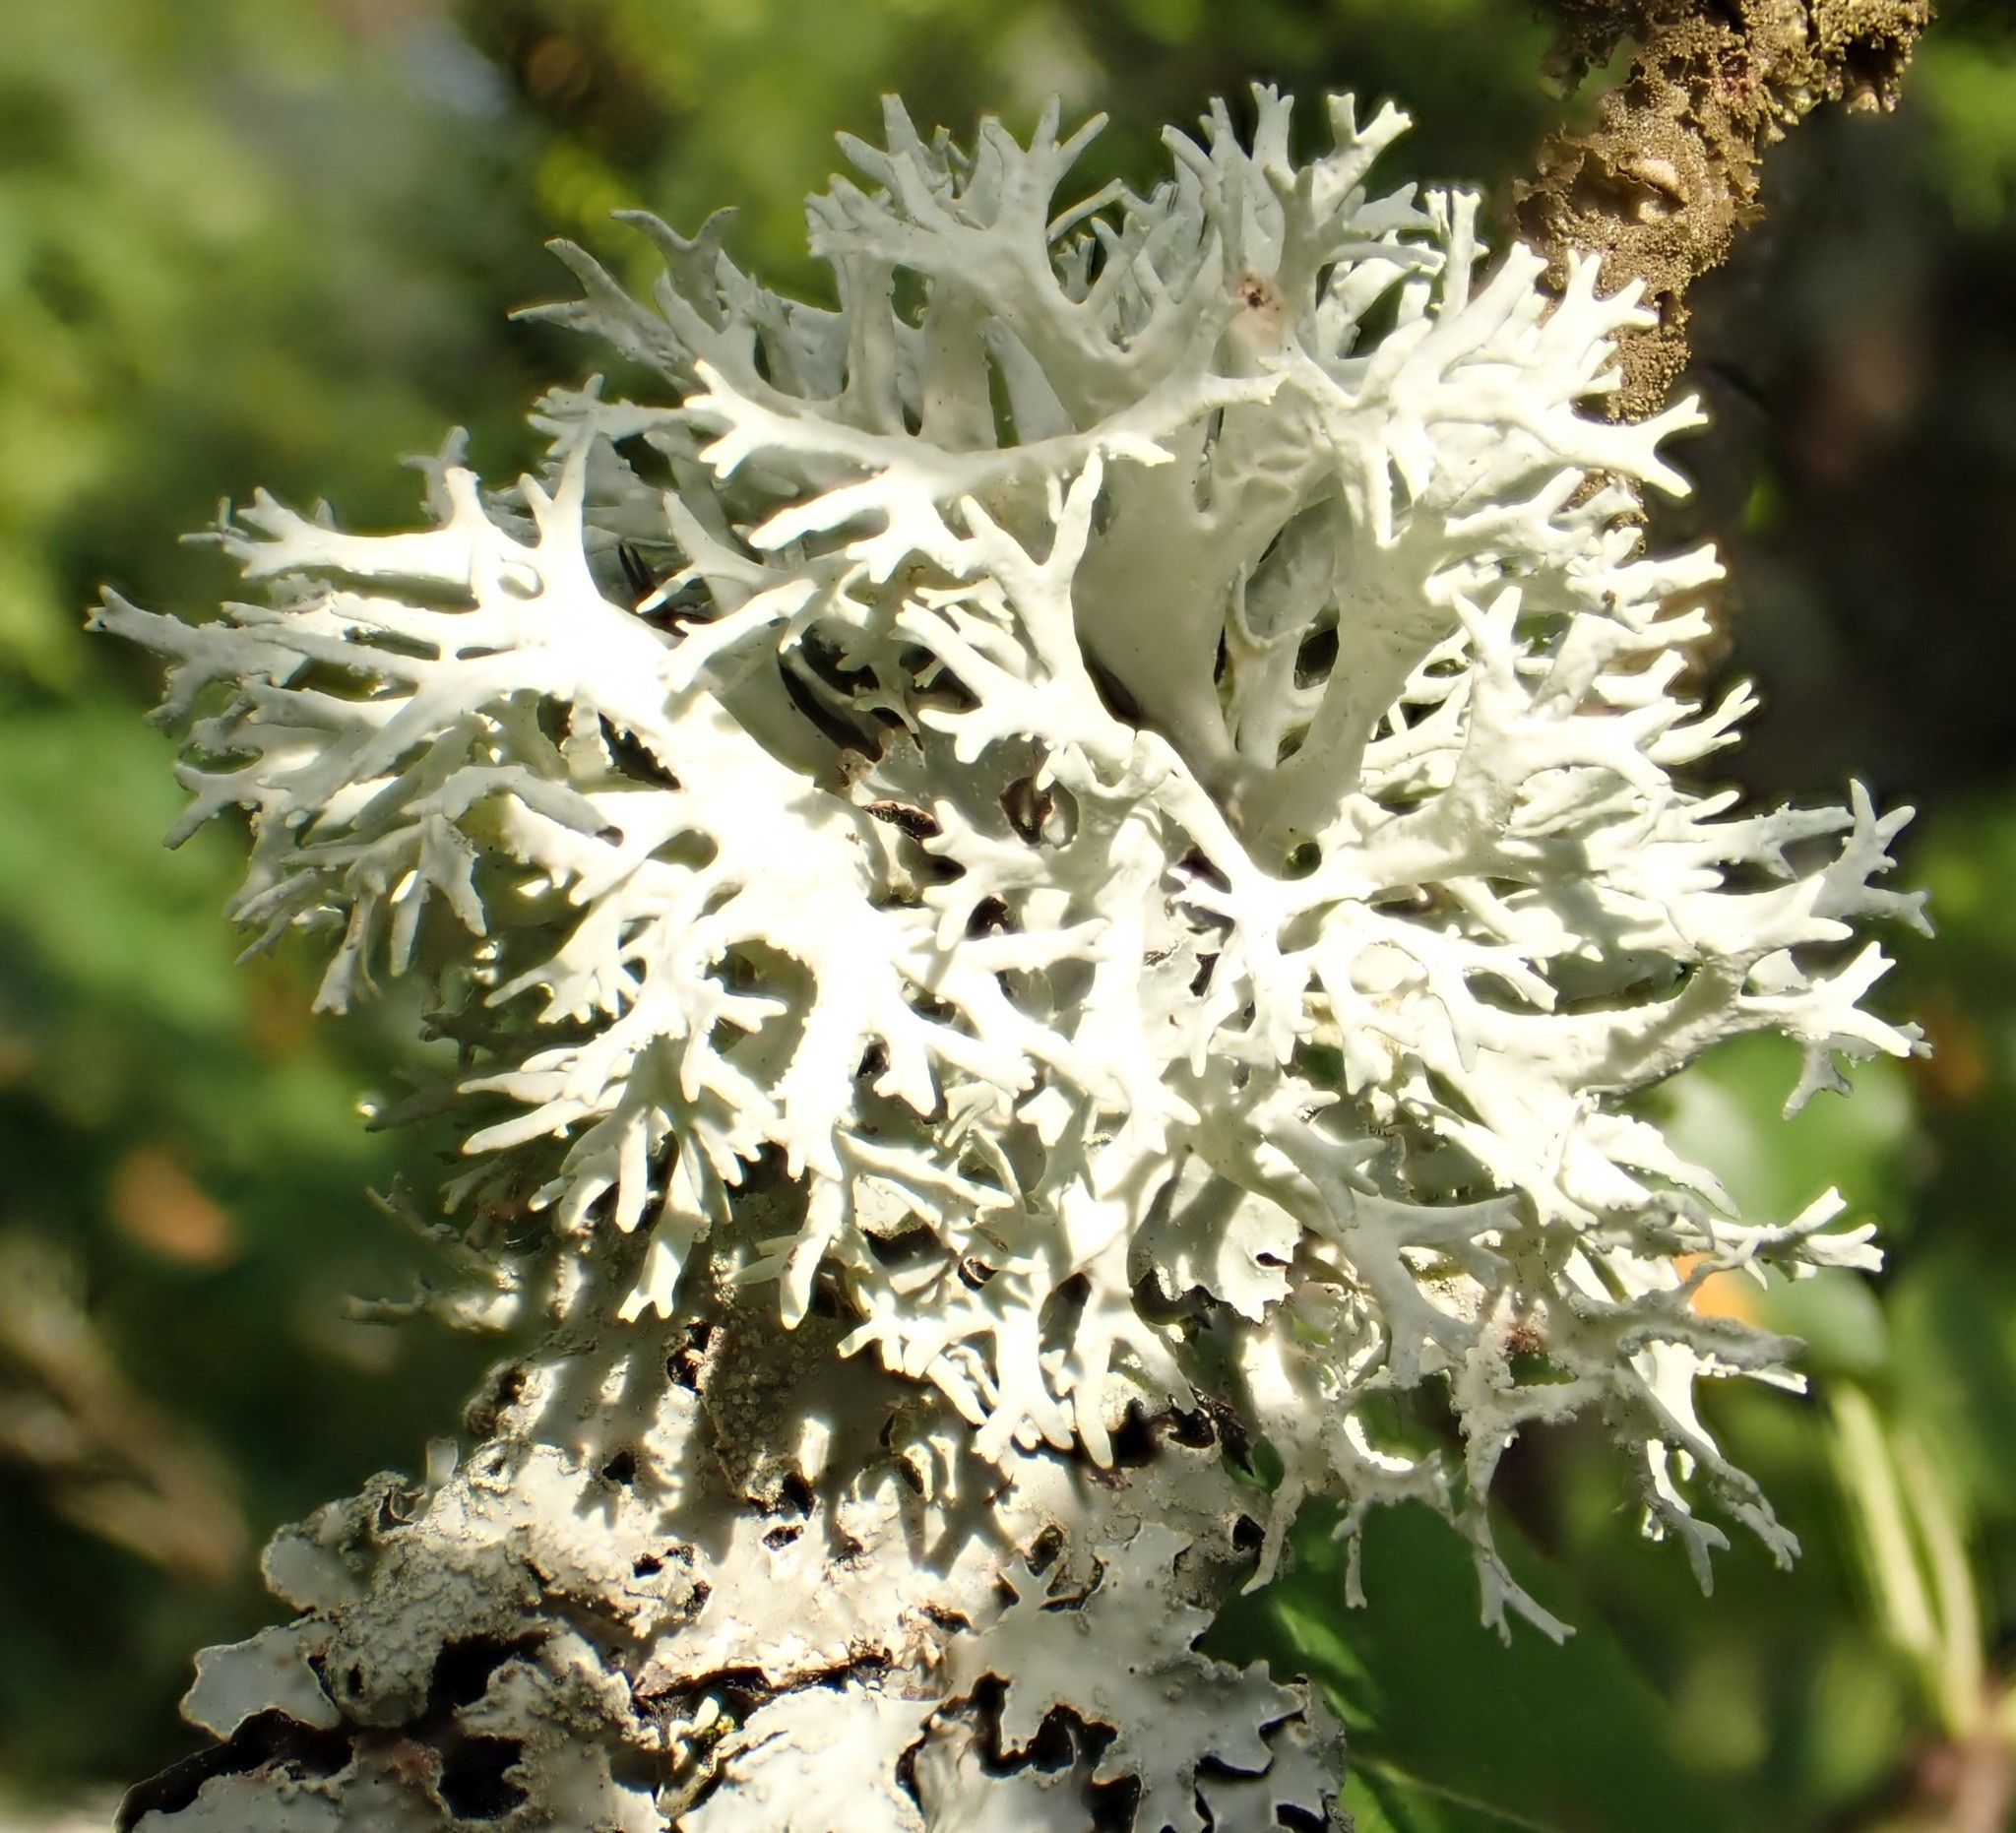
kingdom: Fungi
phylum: Ascomycota
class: Lecanoromycetes
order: Lecanorales
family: Parmeliaceae
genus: Evernia
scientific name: Evernia prunastri
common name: Oak moss
